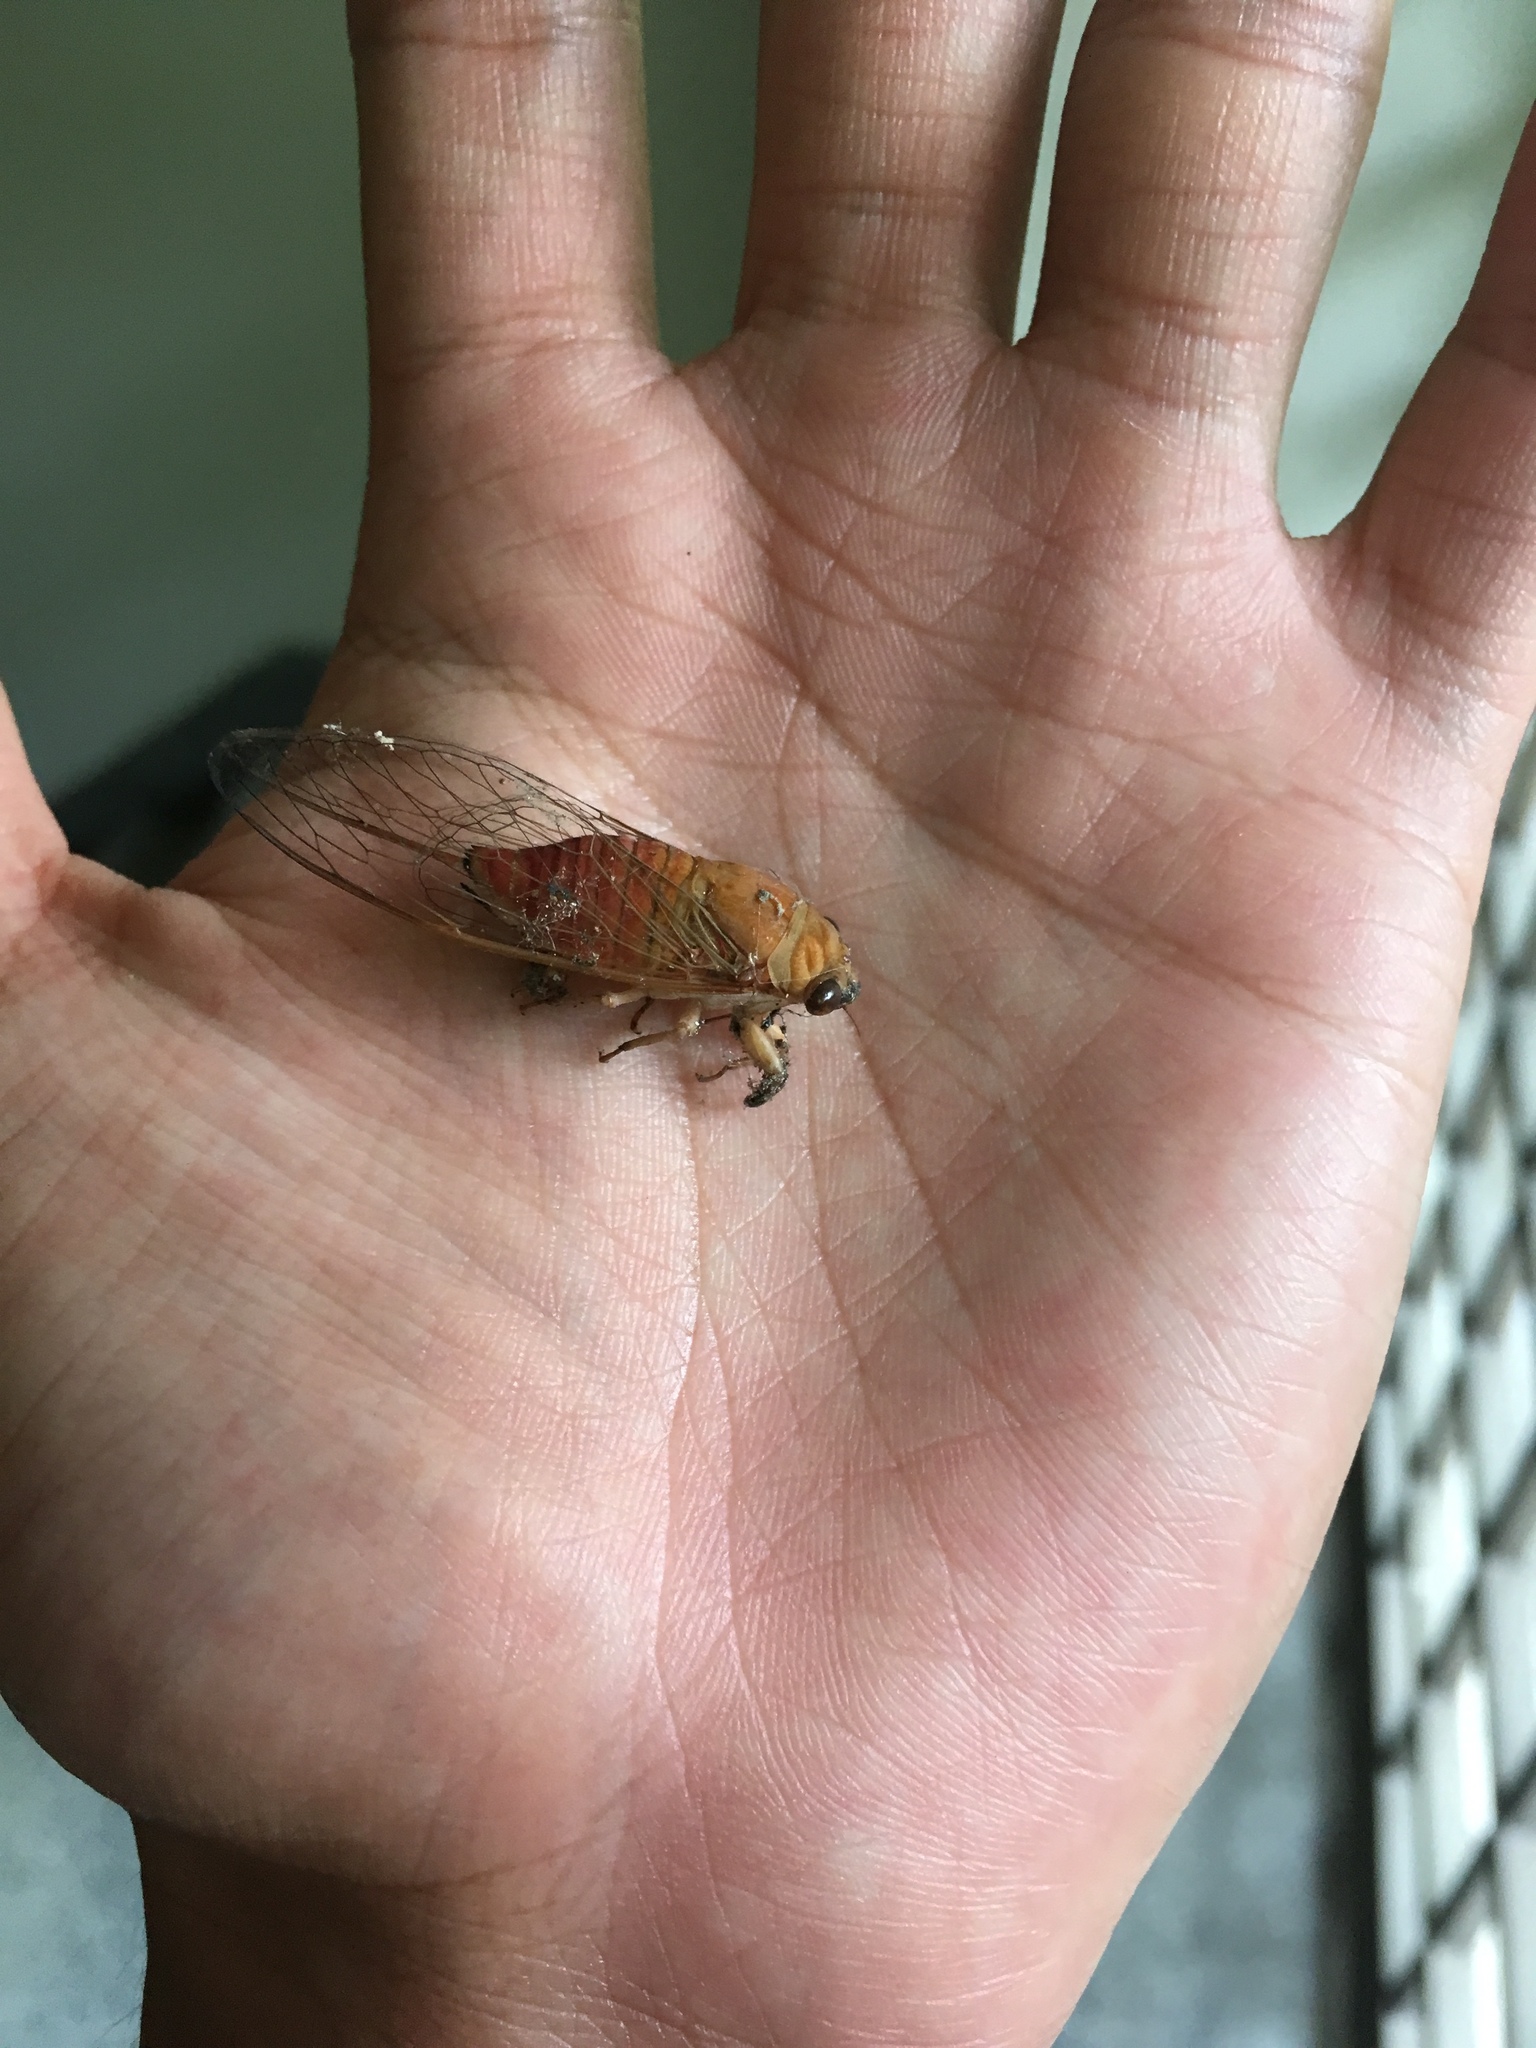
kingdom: Animalia
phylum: Arthropoda
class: Insecta
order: Hemiptera
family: Cicadidae
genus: Chremistica
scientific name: Chremistica ochracea
